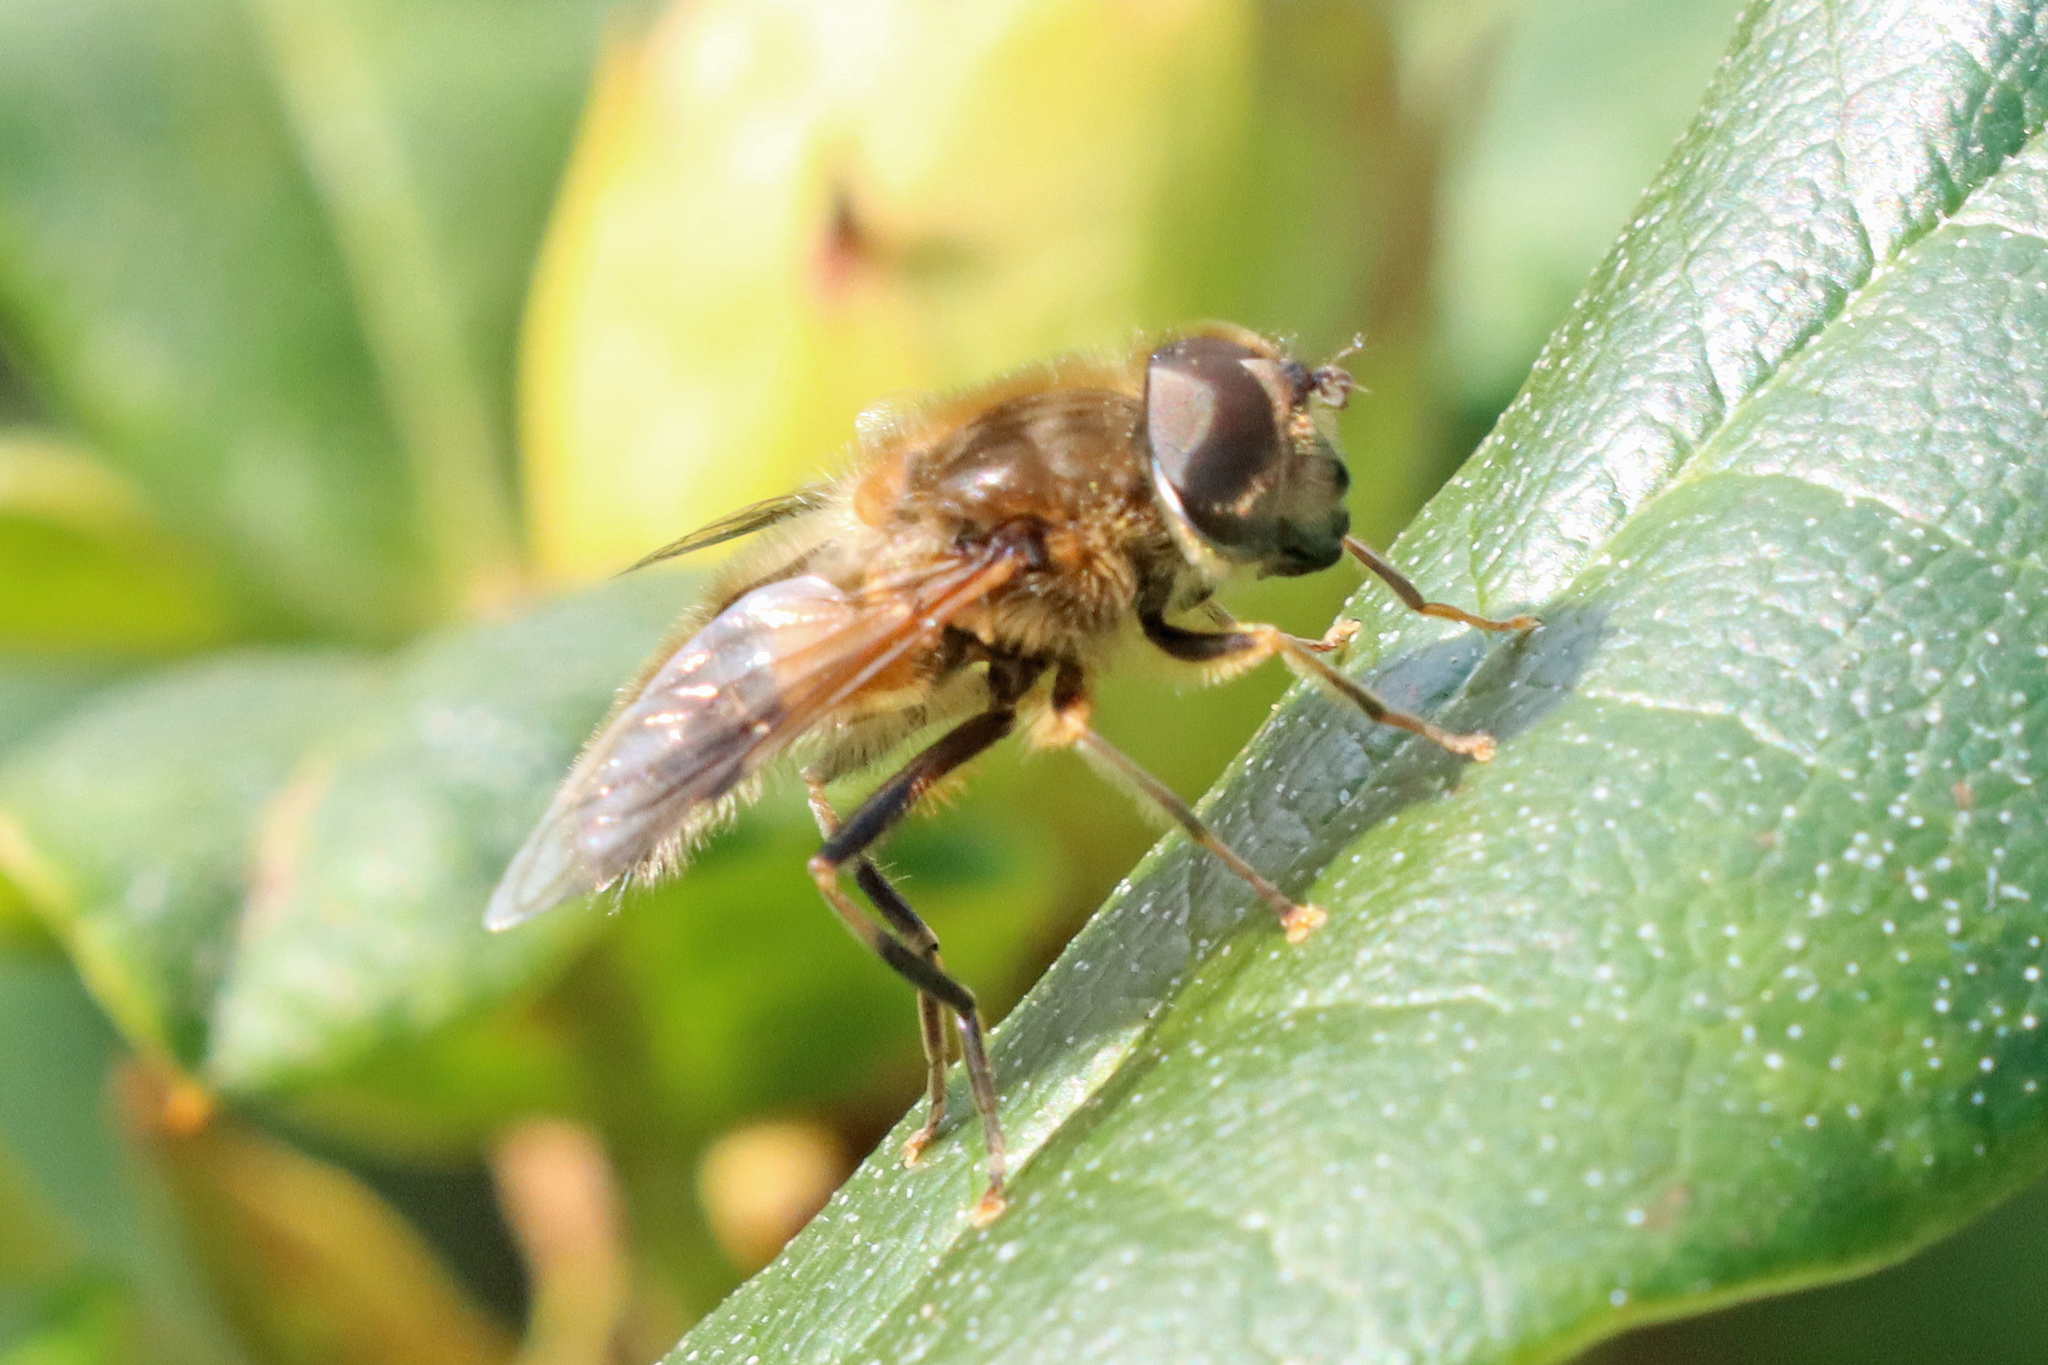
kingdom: Animalia
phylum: Arthropoda
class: Insecta
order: Diptera
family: Syrphidae
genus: Eristalis
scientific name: Eristalis pertinax
